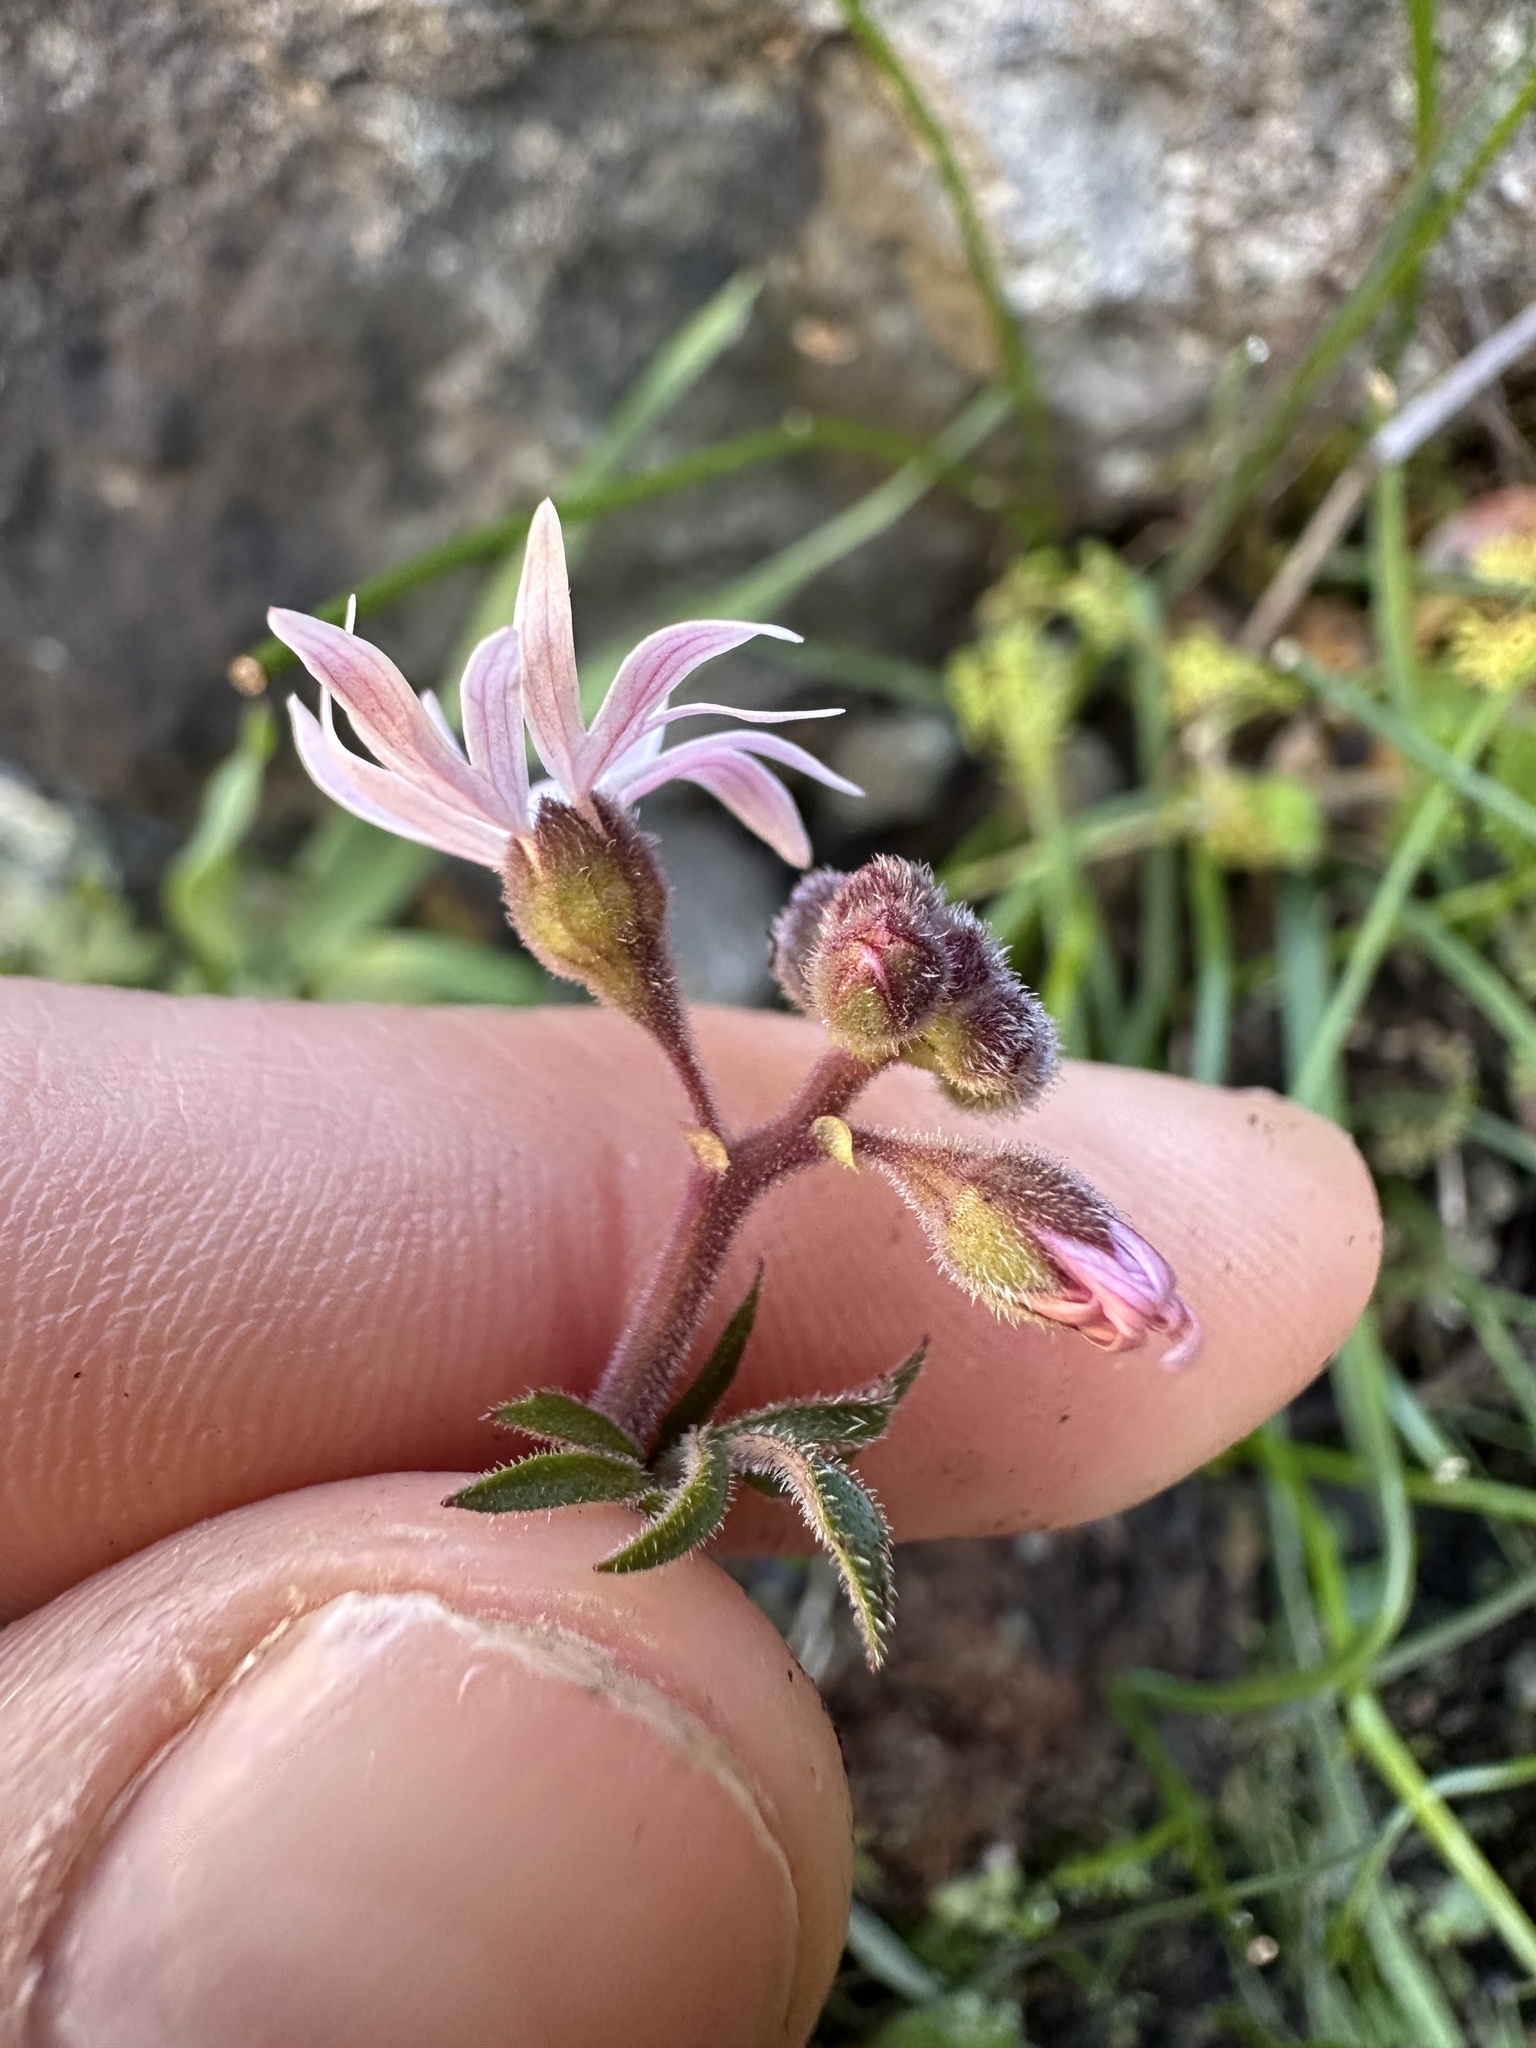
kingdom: Plantae
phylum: Tracheophyta
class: Magnoliopsida
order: Saxifragales
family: Saxifragaceae
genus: Lithophragma
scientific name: Lithophragma parviflorum
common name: Small-flowered fringe-cup
